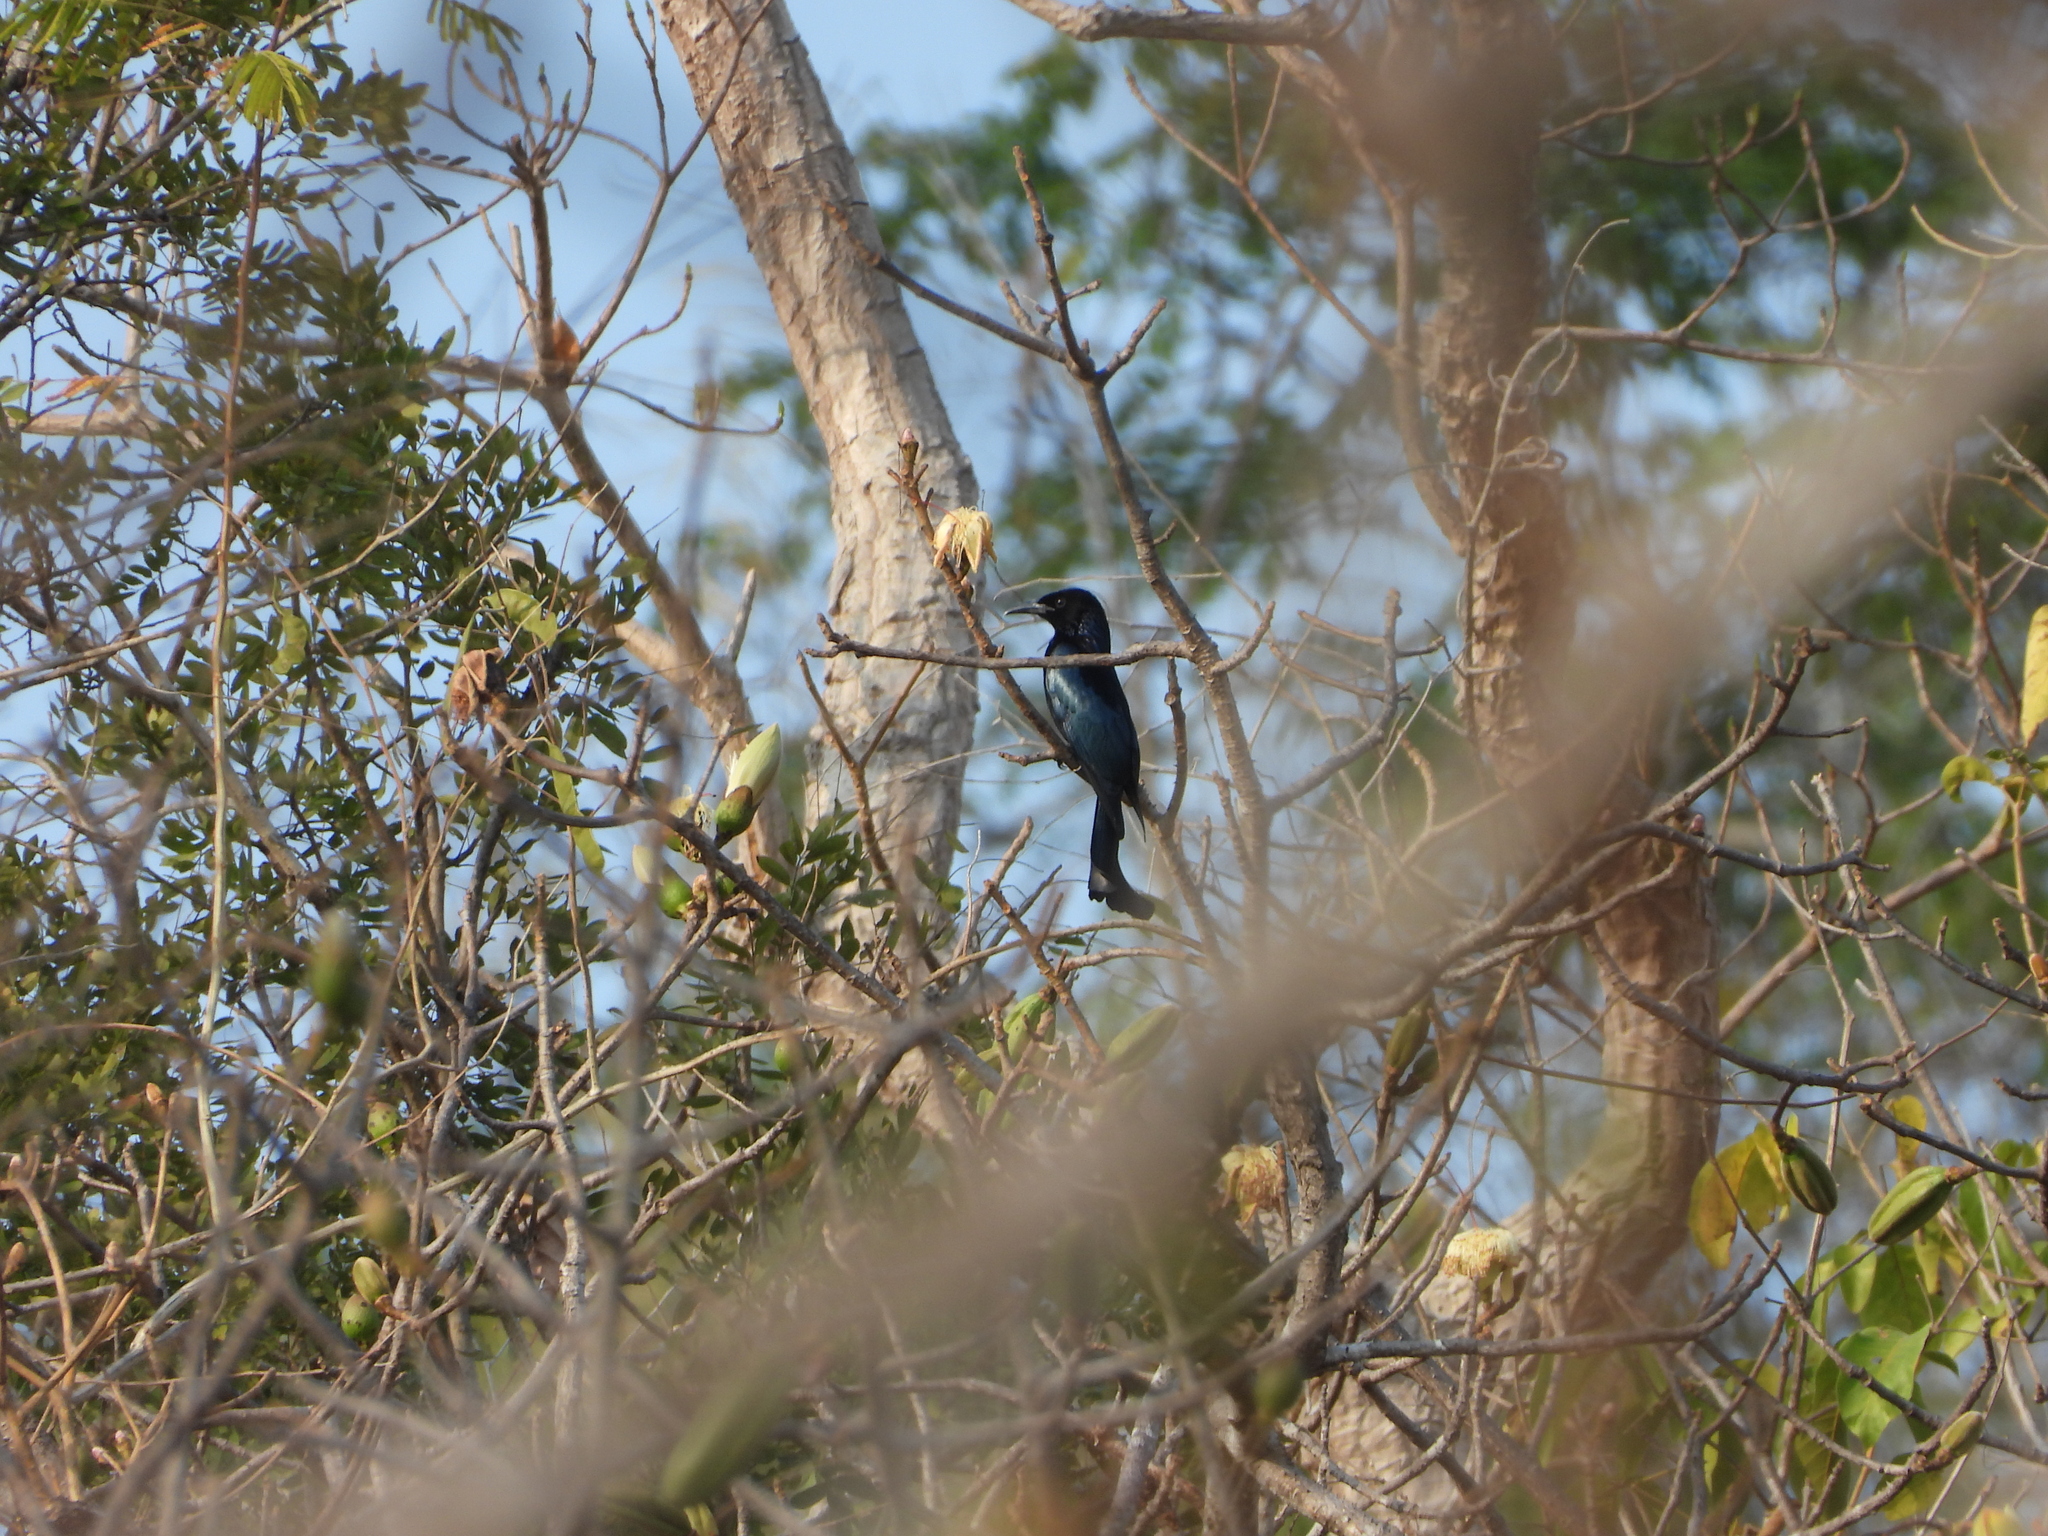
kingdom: Animalia
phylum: Chordata
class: Aves
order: Passeriformes
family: Dicruridae
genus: Dicrurus
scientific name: Dicrurus hottentottus
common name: Hair-crested drongo
